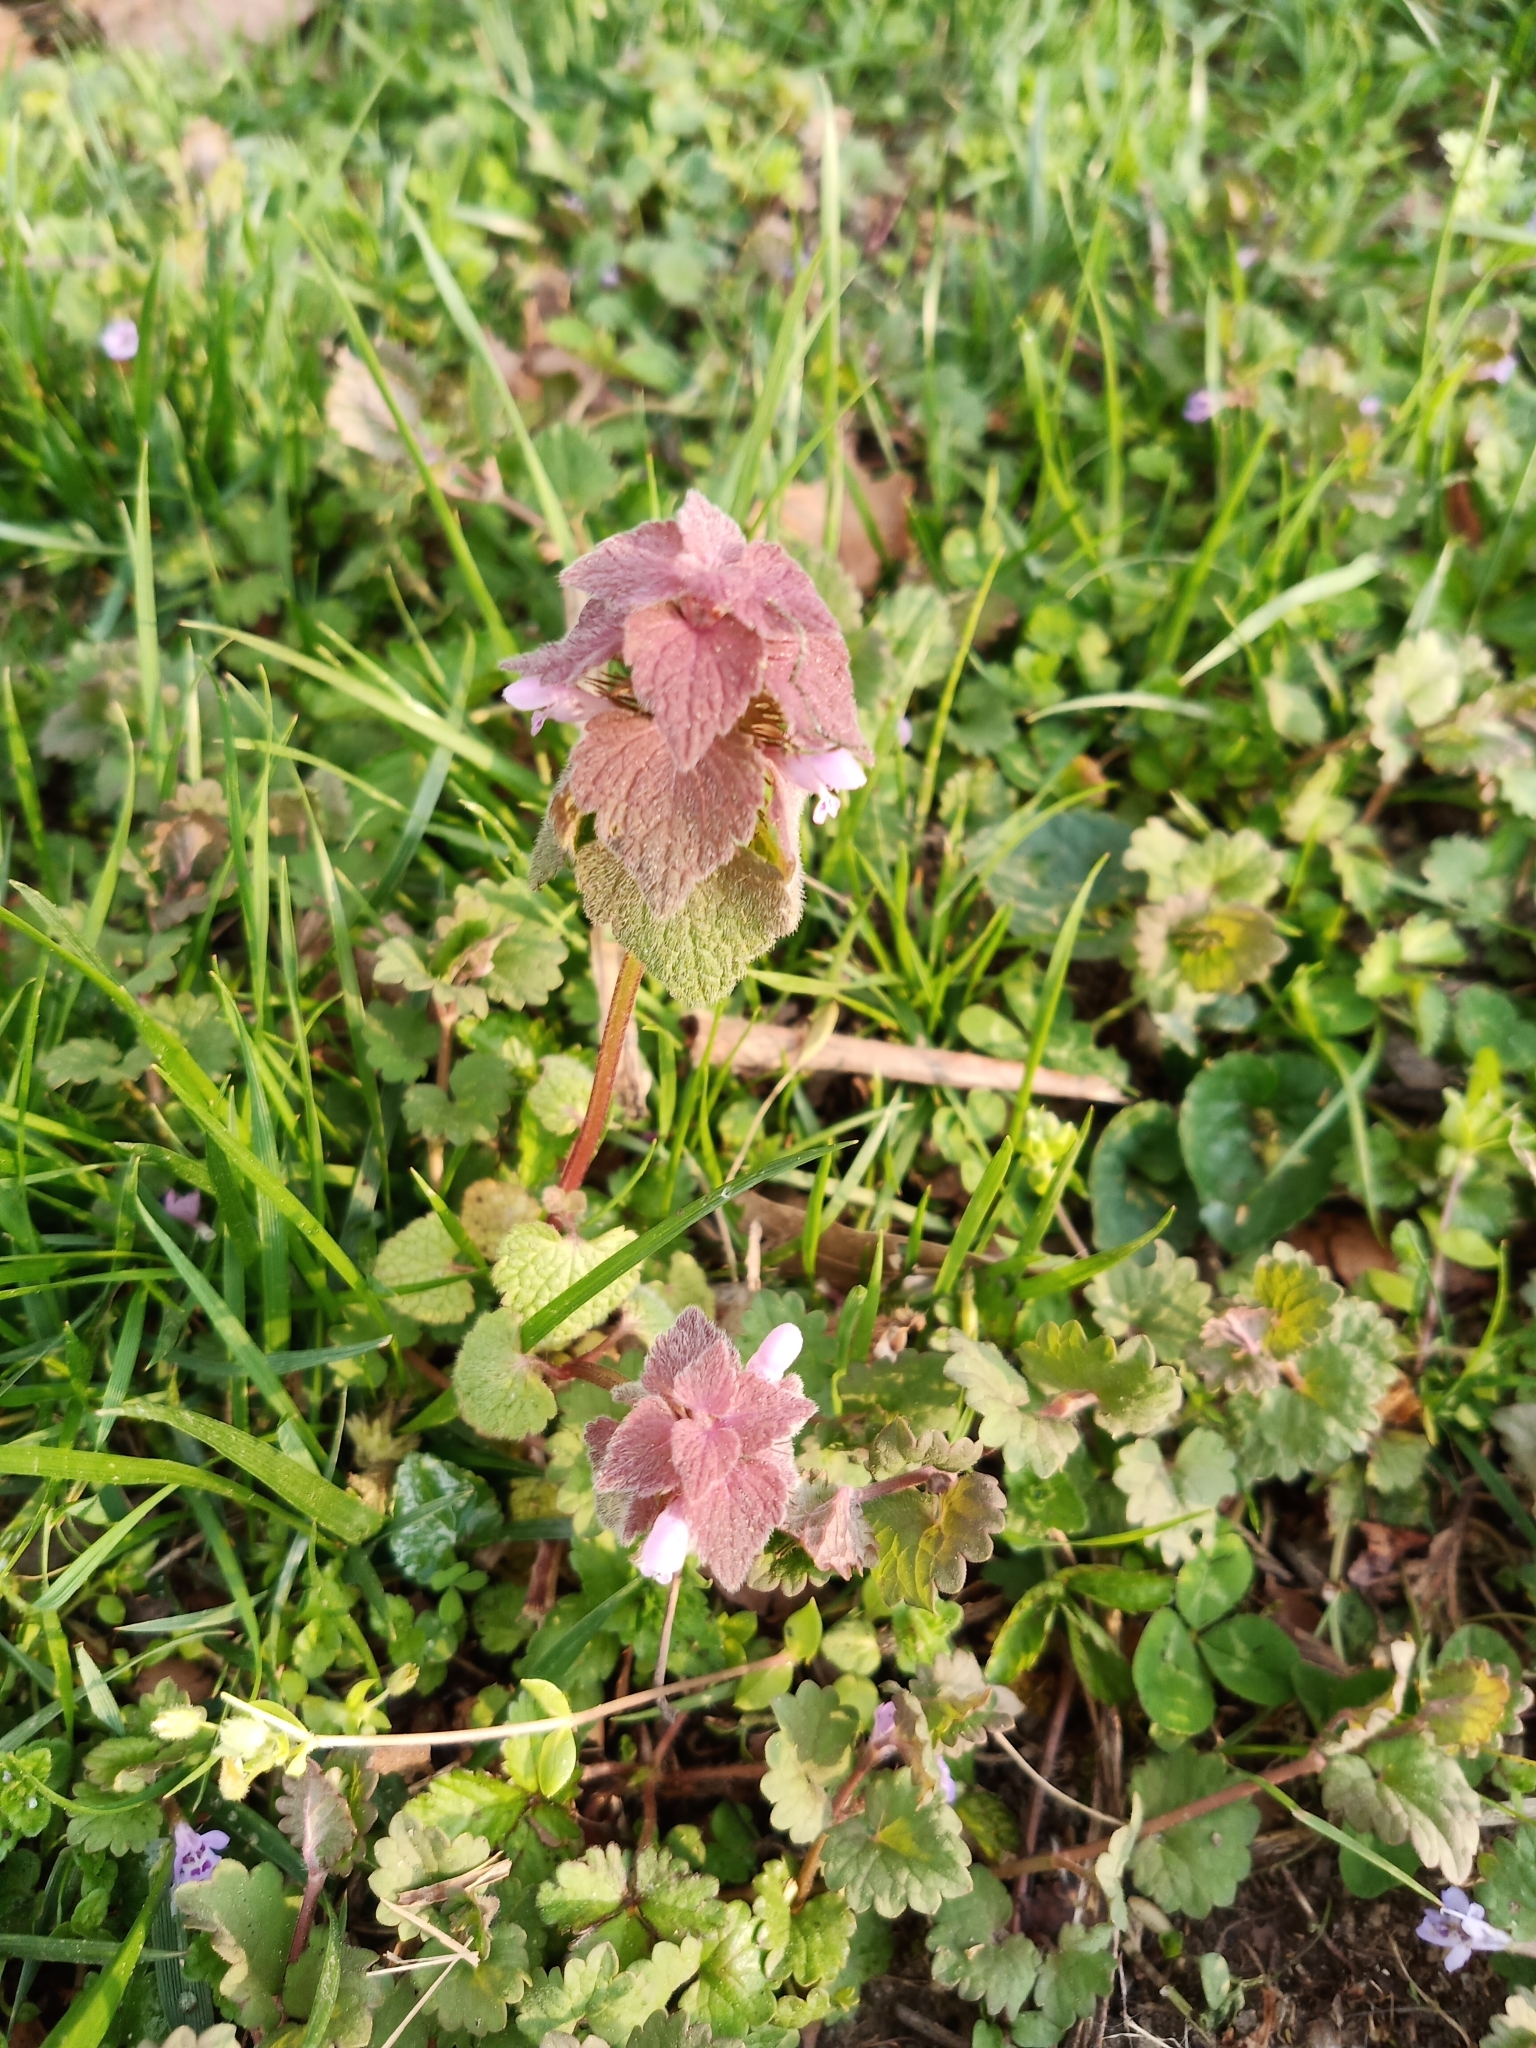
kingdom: Plantae
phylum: Tracheophyta
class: Magnoliopsida
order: Lamiales
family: Lamiaceae
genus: Lamium
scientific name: Lamium purpureum
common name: Red dead-nettle
